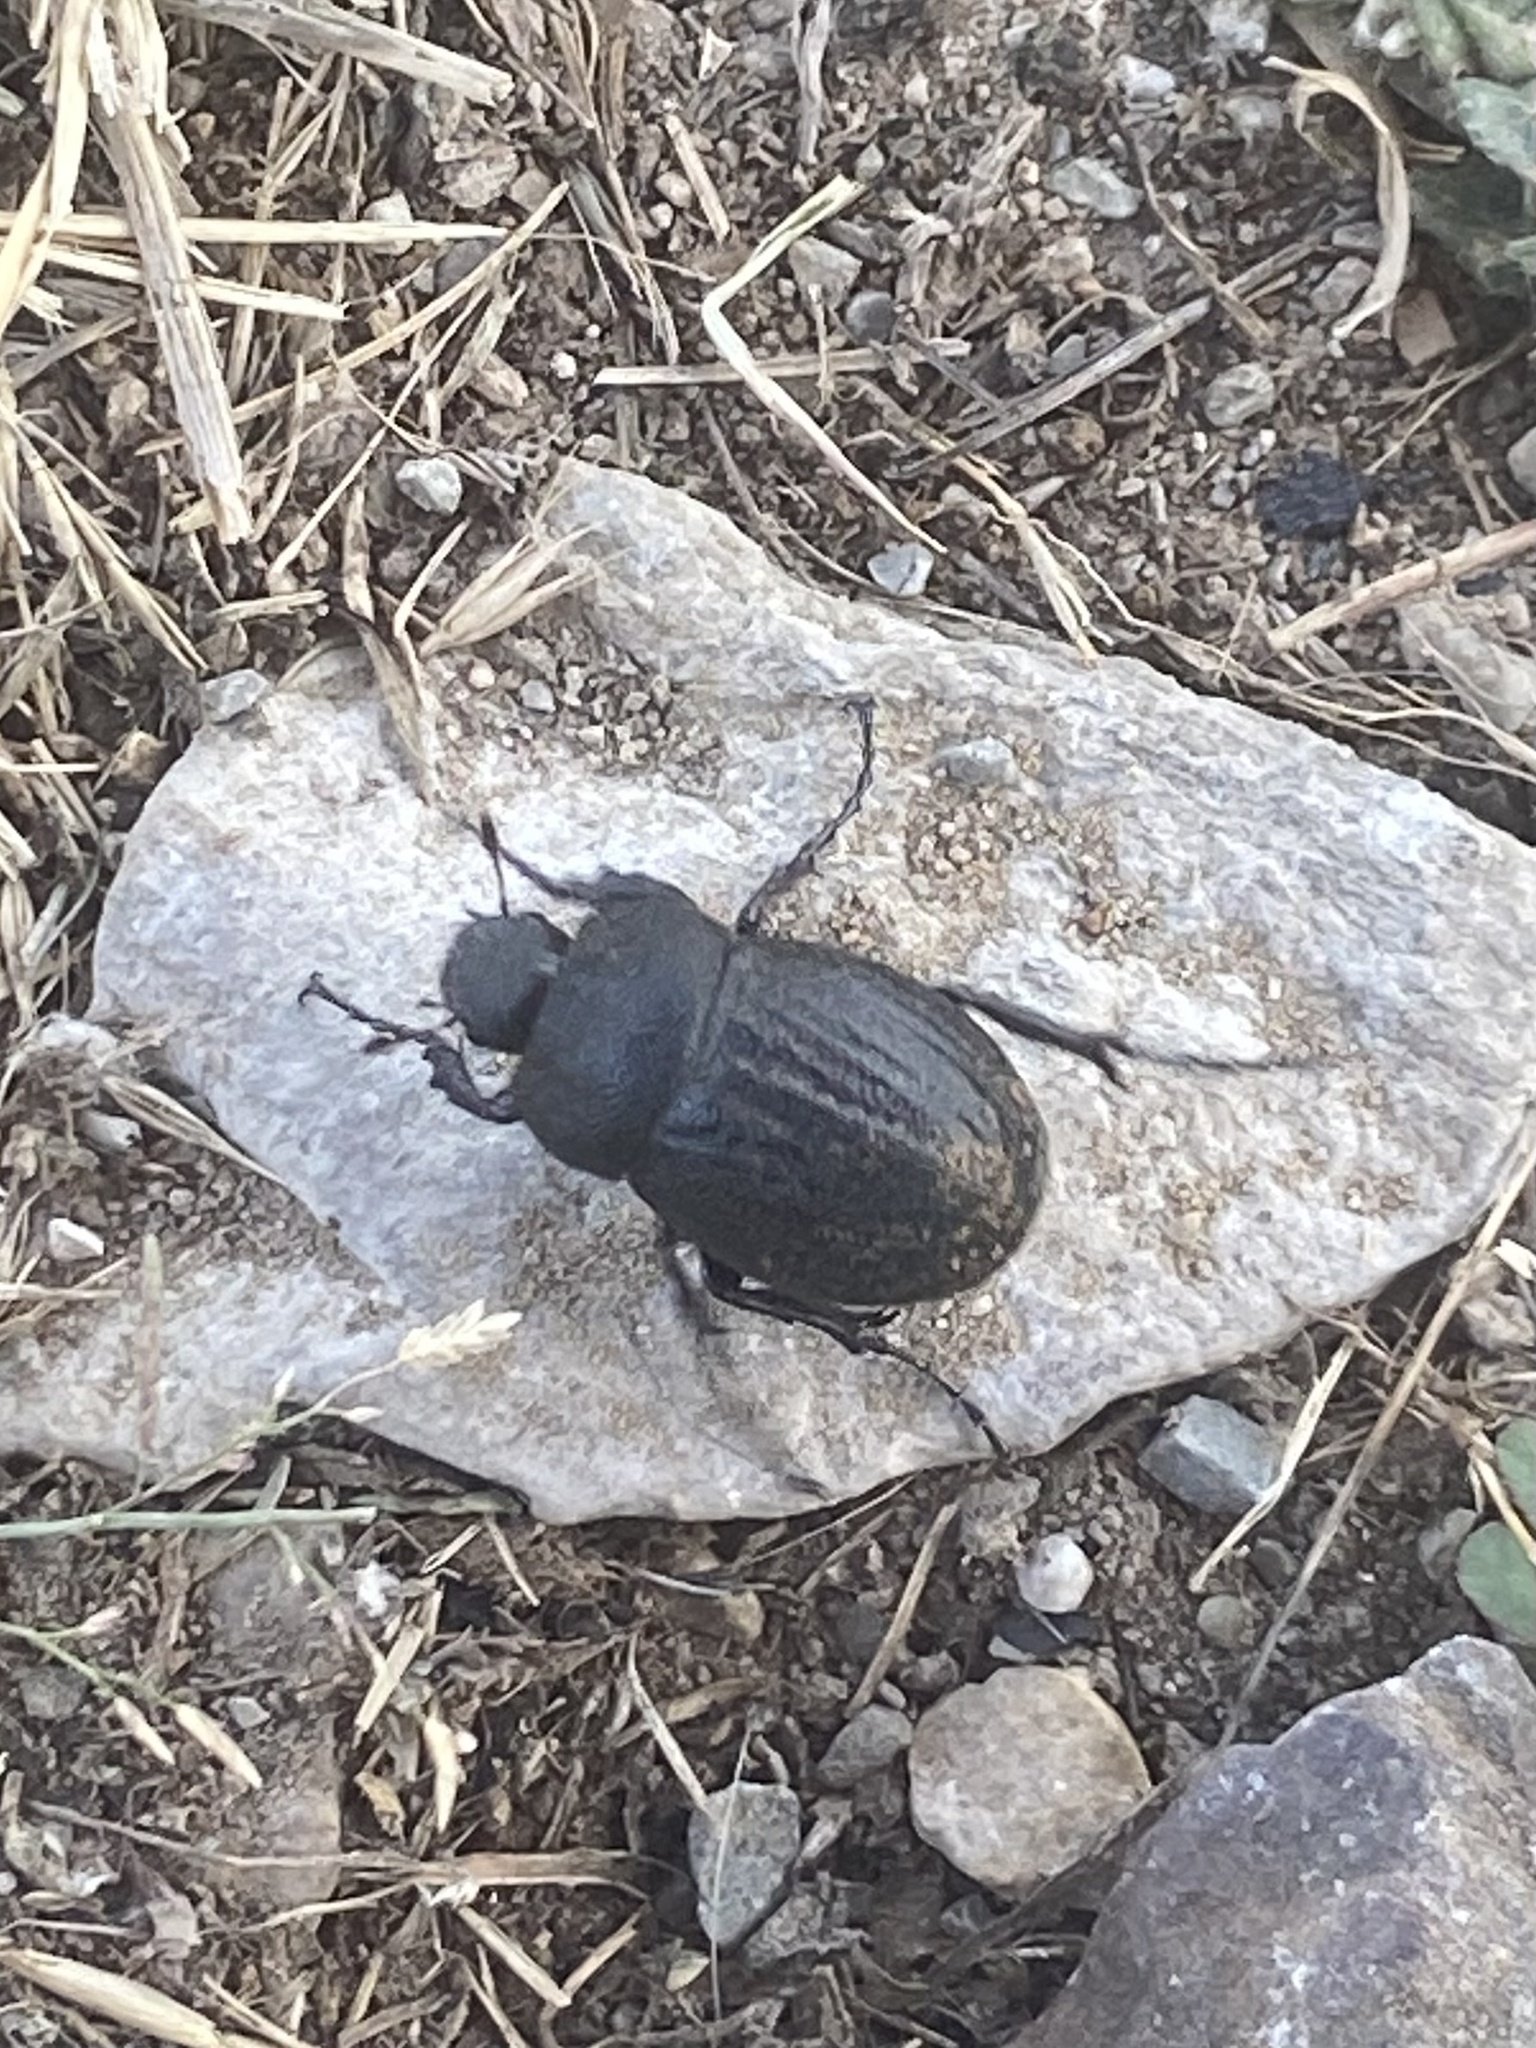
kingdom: Animalia
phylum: Arthropoda
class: Insecta
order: Coleoptera
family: Scarabaeidae
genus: Phyllophaga
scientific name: Phyllophaga cribrosa
